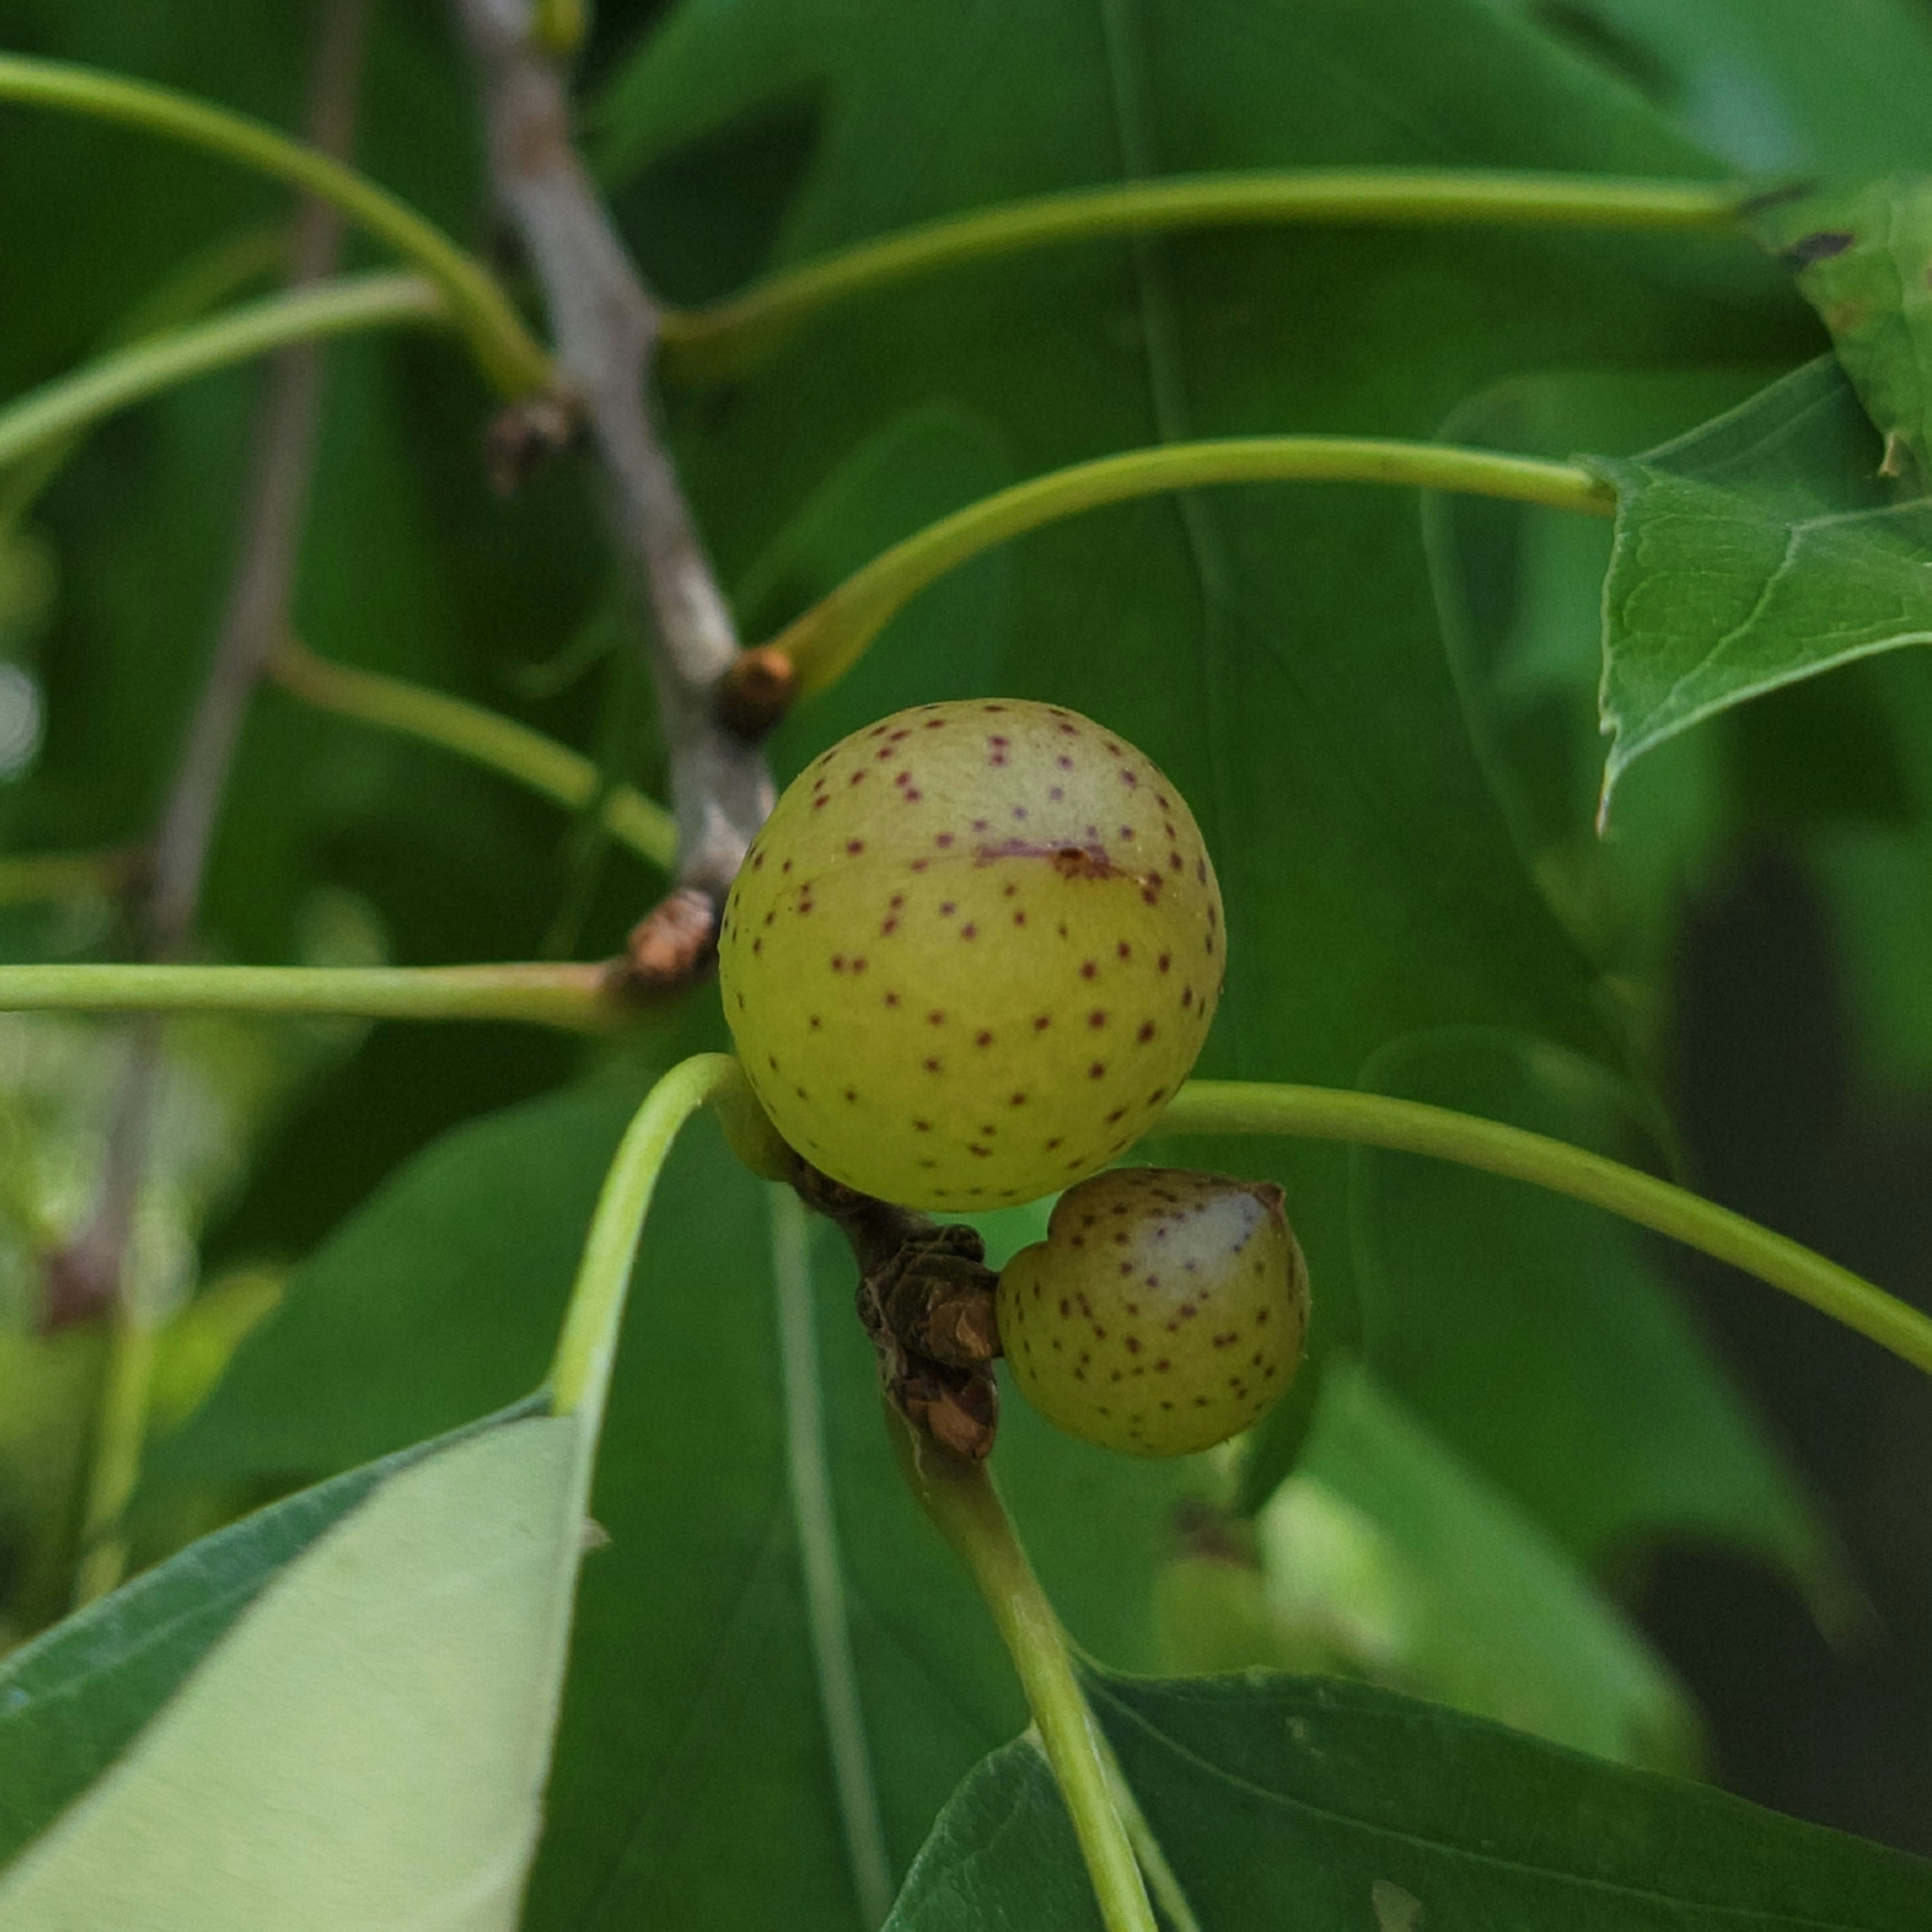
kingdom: Animalia
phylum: Arthropoda
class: Insecta
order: Hymenoptera
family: Cynipidae
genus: Amphibolips
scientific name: Amphibolips
